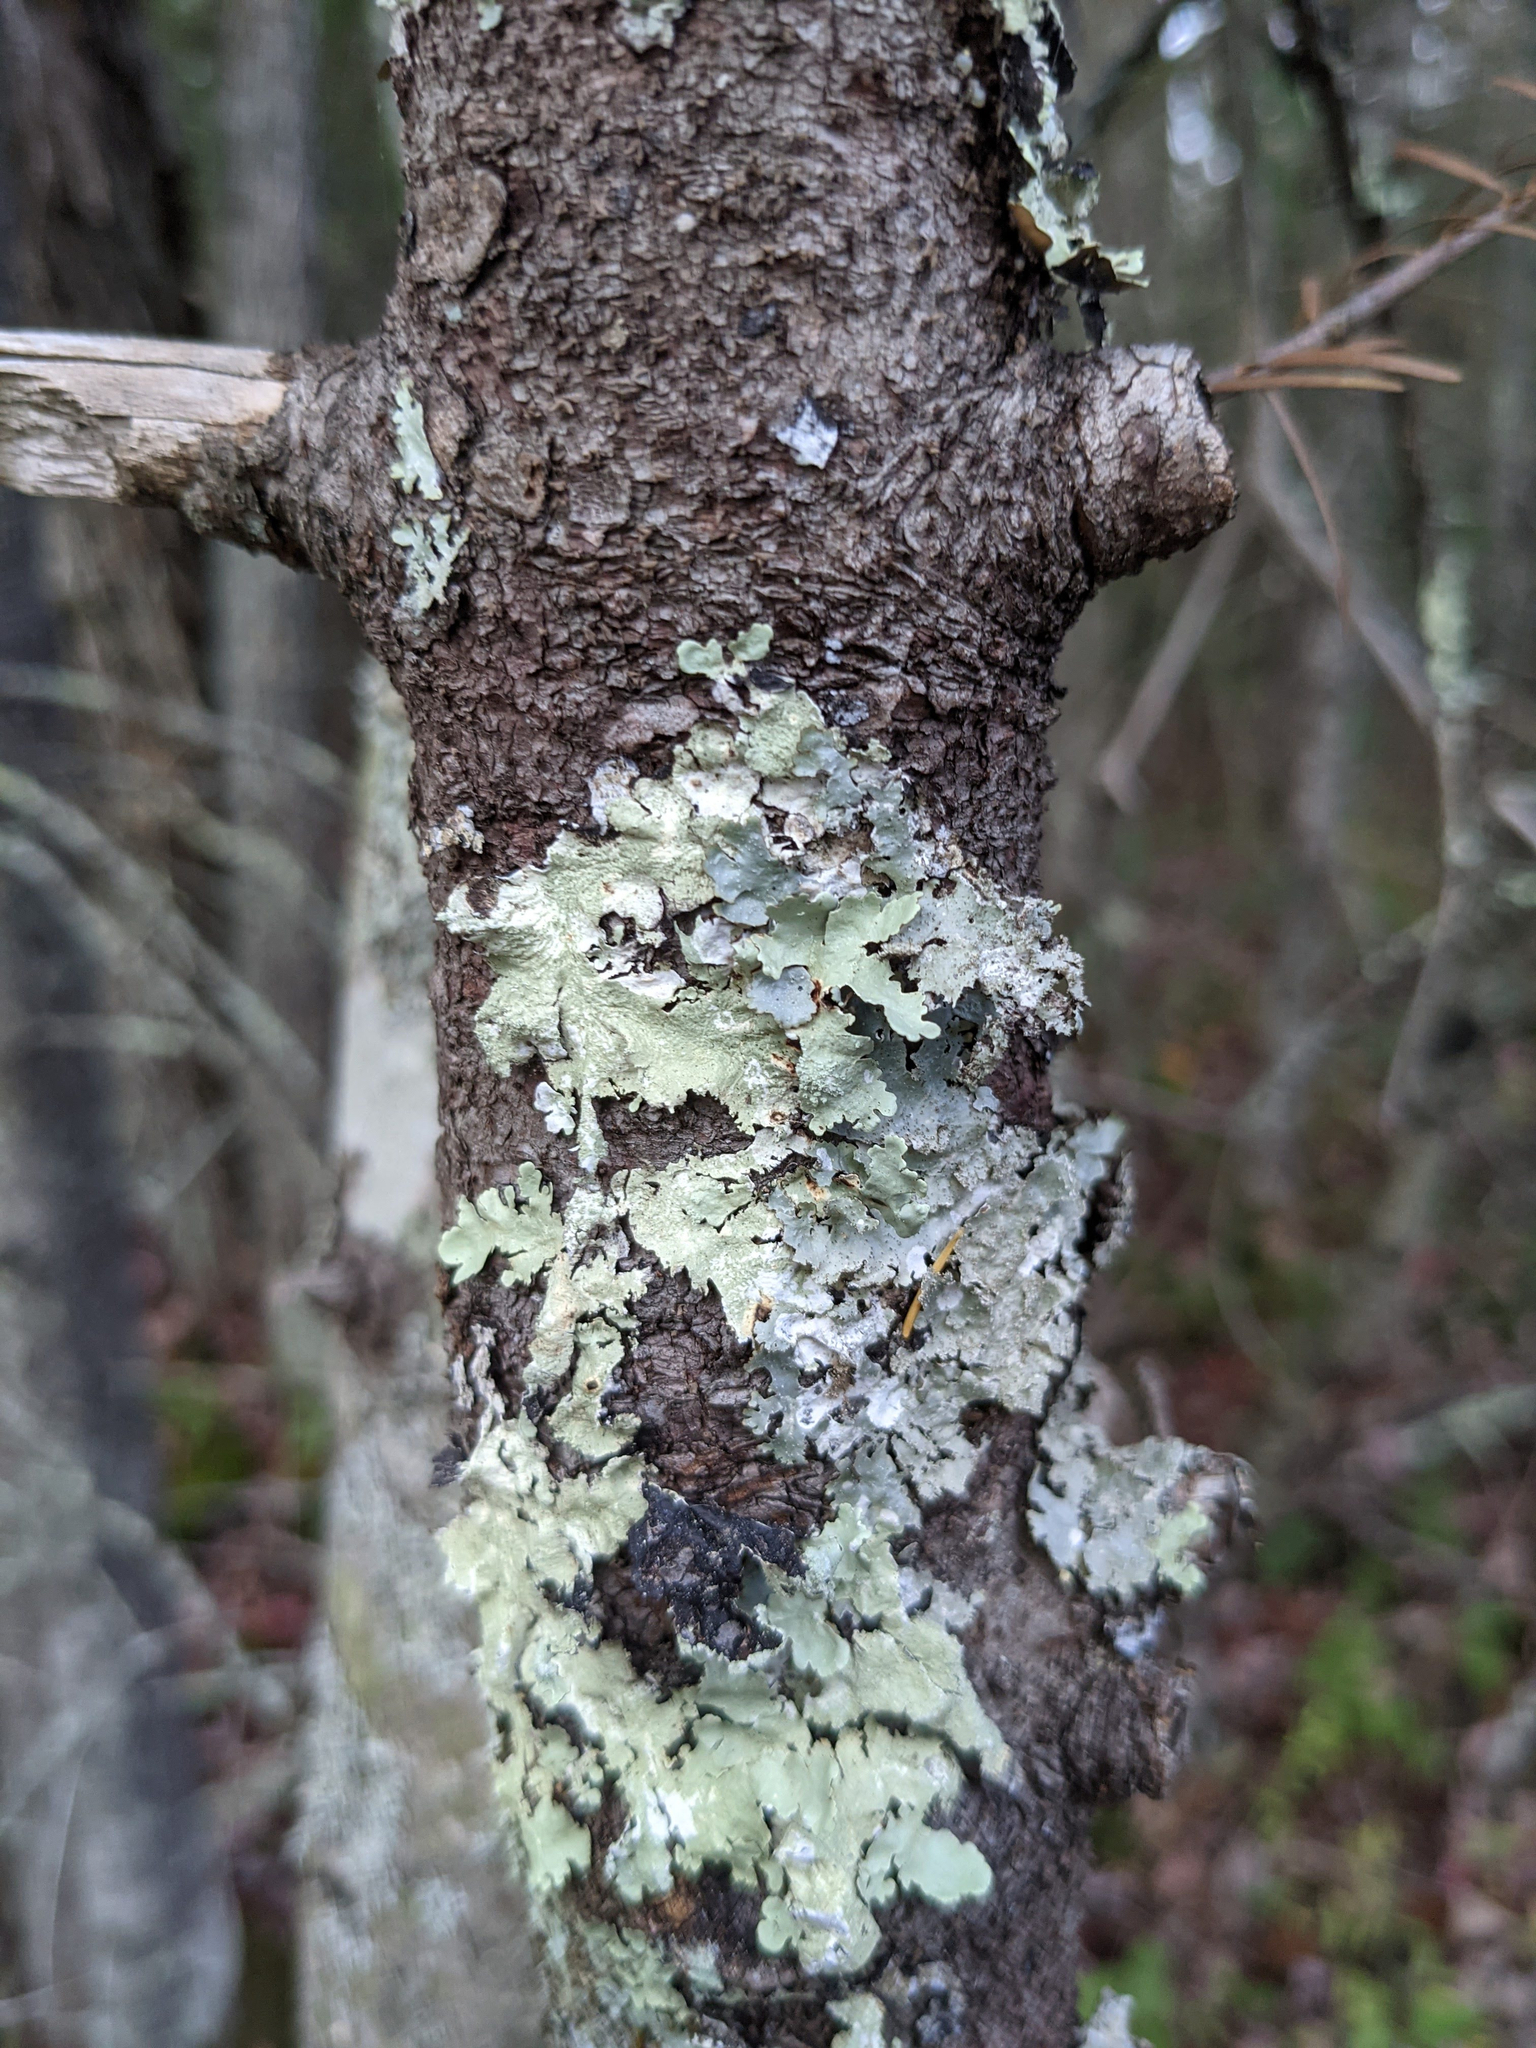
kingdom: Fungi
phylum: Ascomycota
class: Lecanoromycetes
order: Lecanorales
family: Parmeliaceae
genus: Flavoparmelia
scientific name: Flavoparmelia caperata
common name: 40-mile per hour lichen
